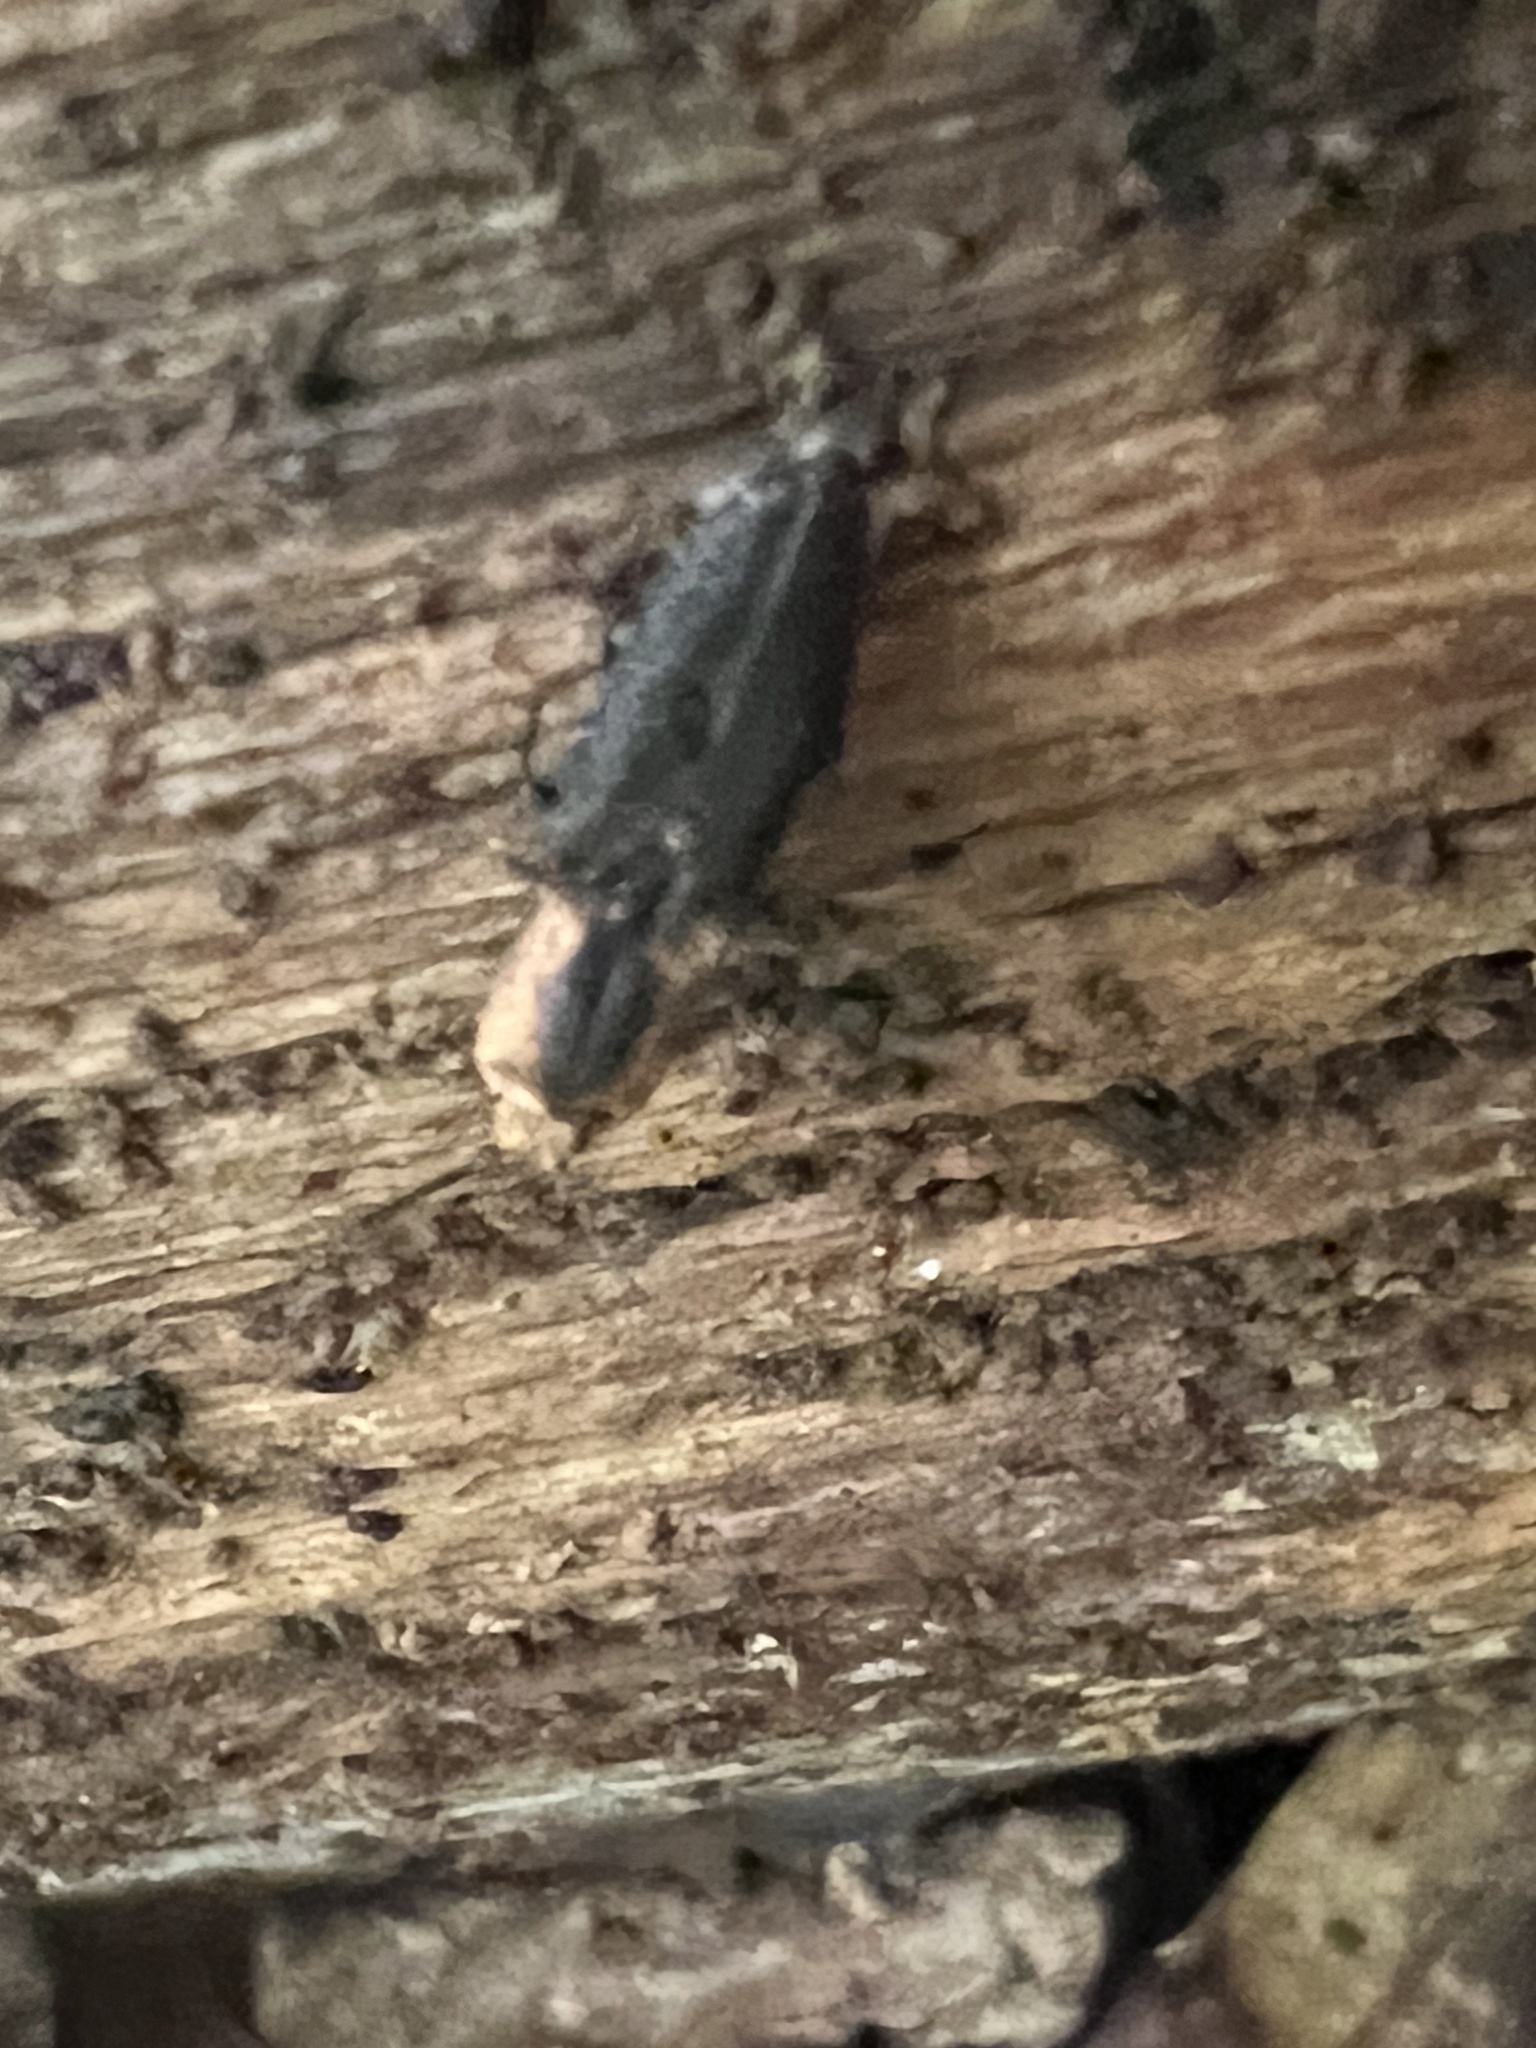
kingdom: Animalia
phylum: Arthropoda
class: Insecta
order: Coleoptera
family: Elateridae
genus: Lacon
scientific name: Lacon discoideus
